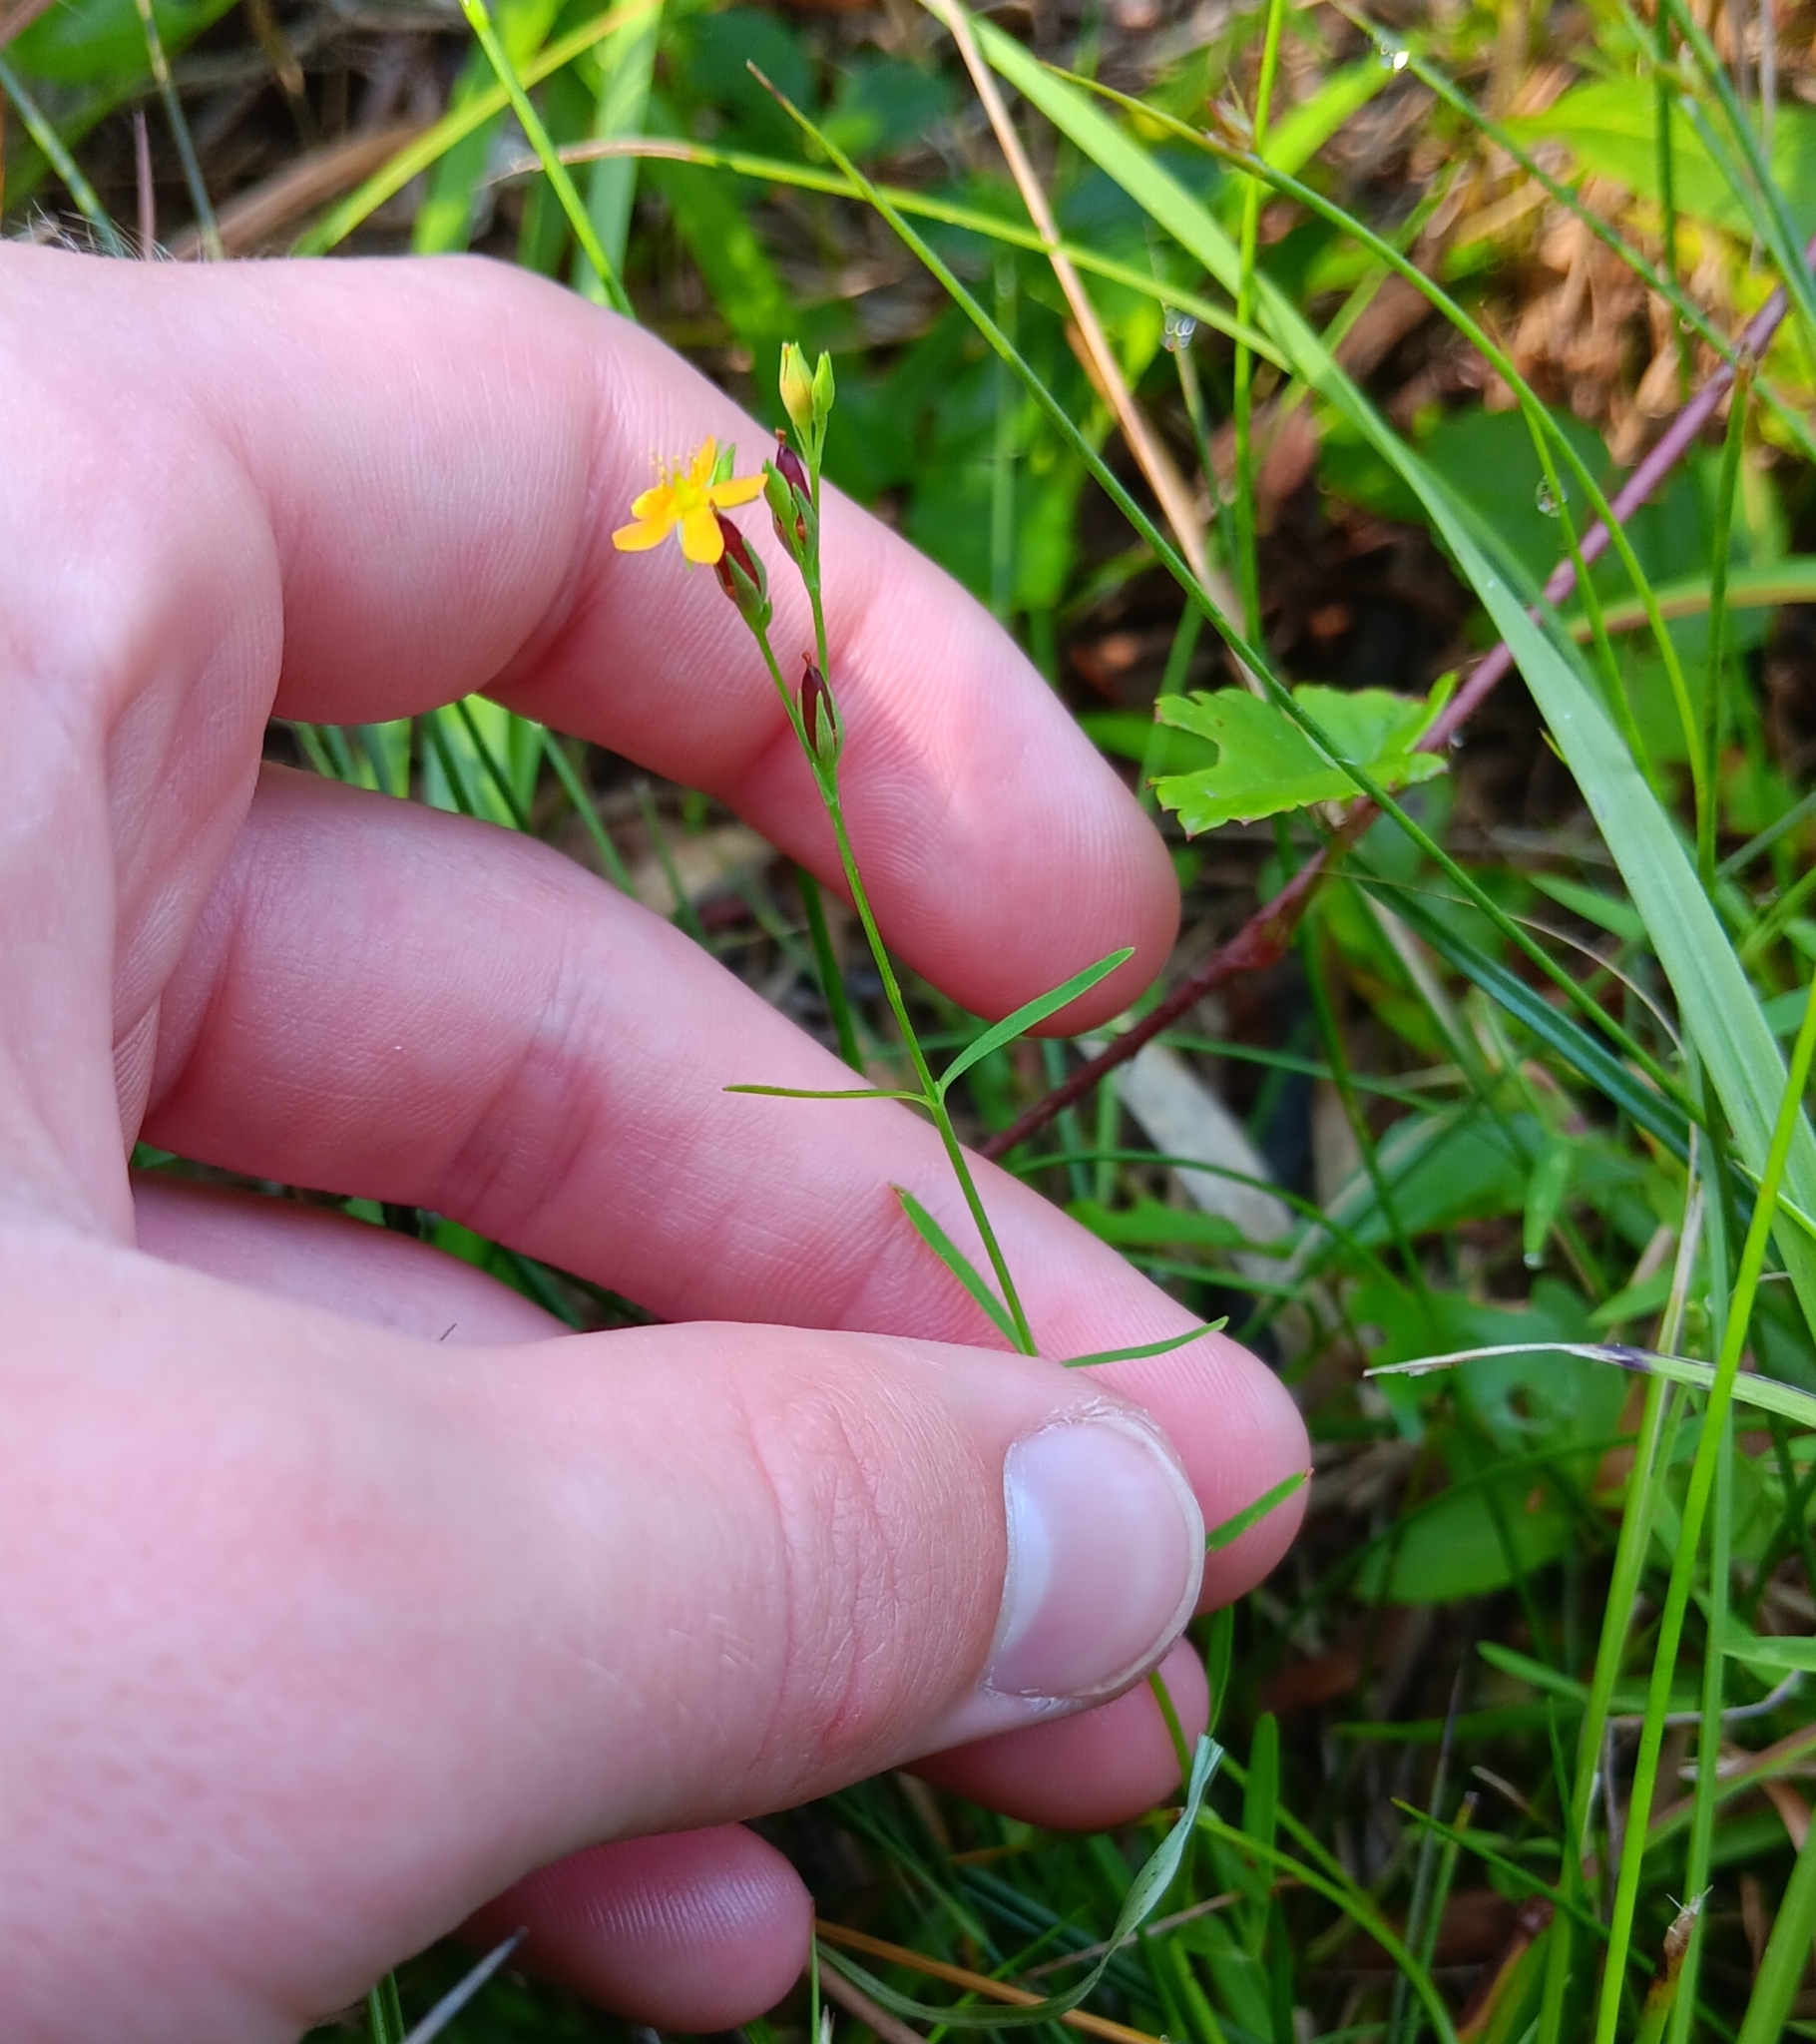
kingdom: Plantae
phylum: Tracheophyta
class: Magnoliopsida
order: Malpighiales
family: Hypericaceae
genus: Hypericum
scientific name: Hypericum canadense
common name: Irish st. john's-wort
